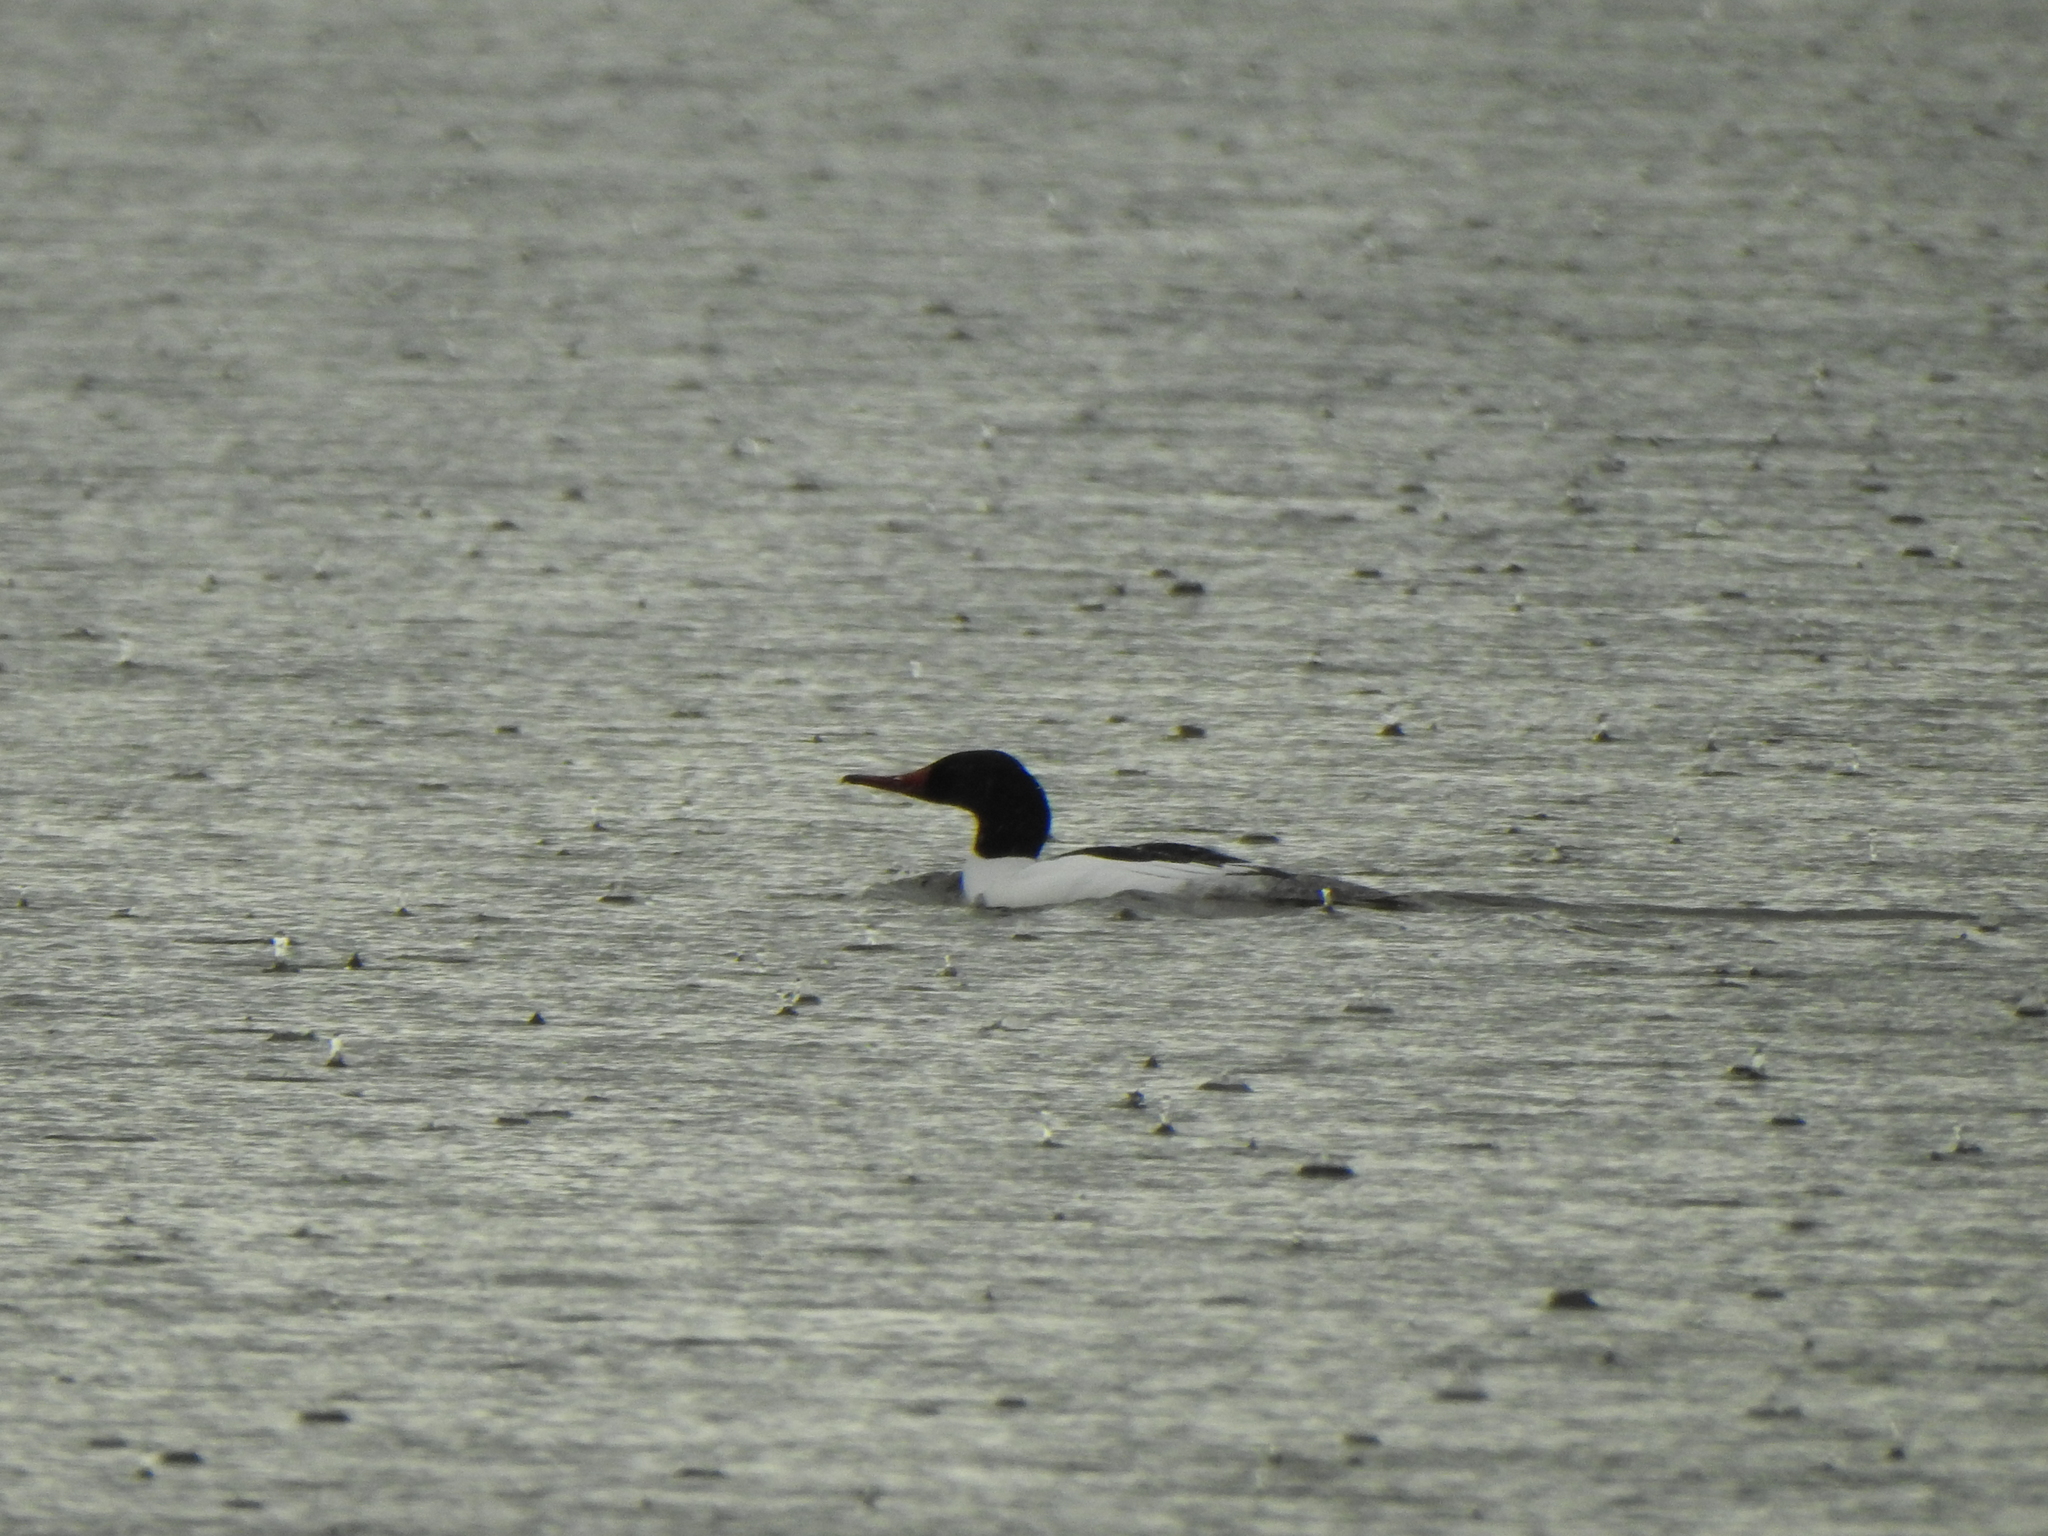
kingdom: Animalia
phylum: Chordata
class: Aves
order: Anseriformes
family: Anatidae
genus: Mergus
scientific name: Mergus merganser
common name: Common merganser
